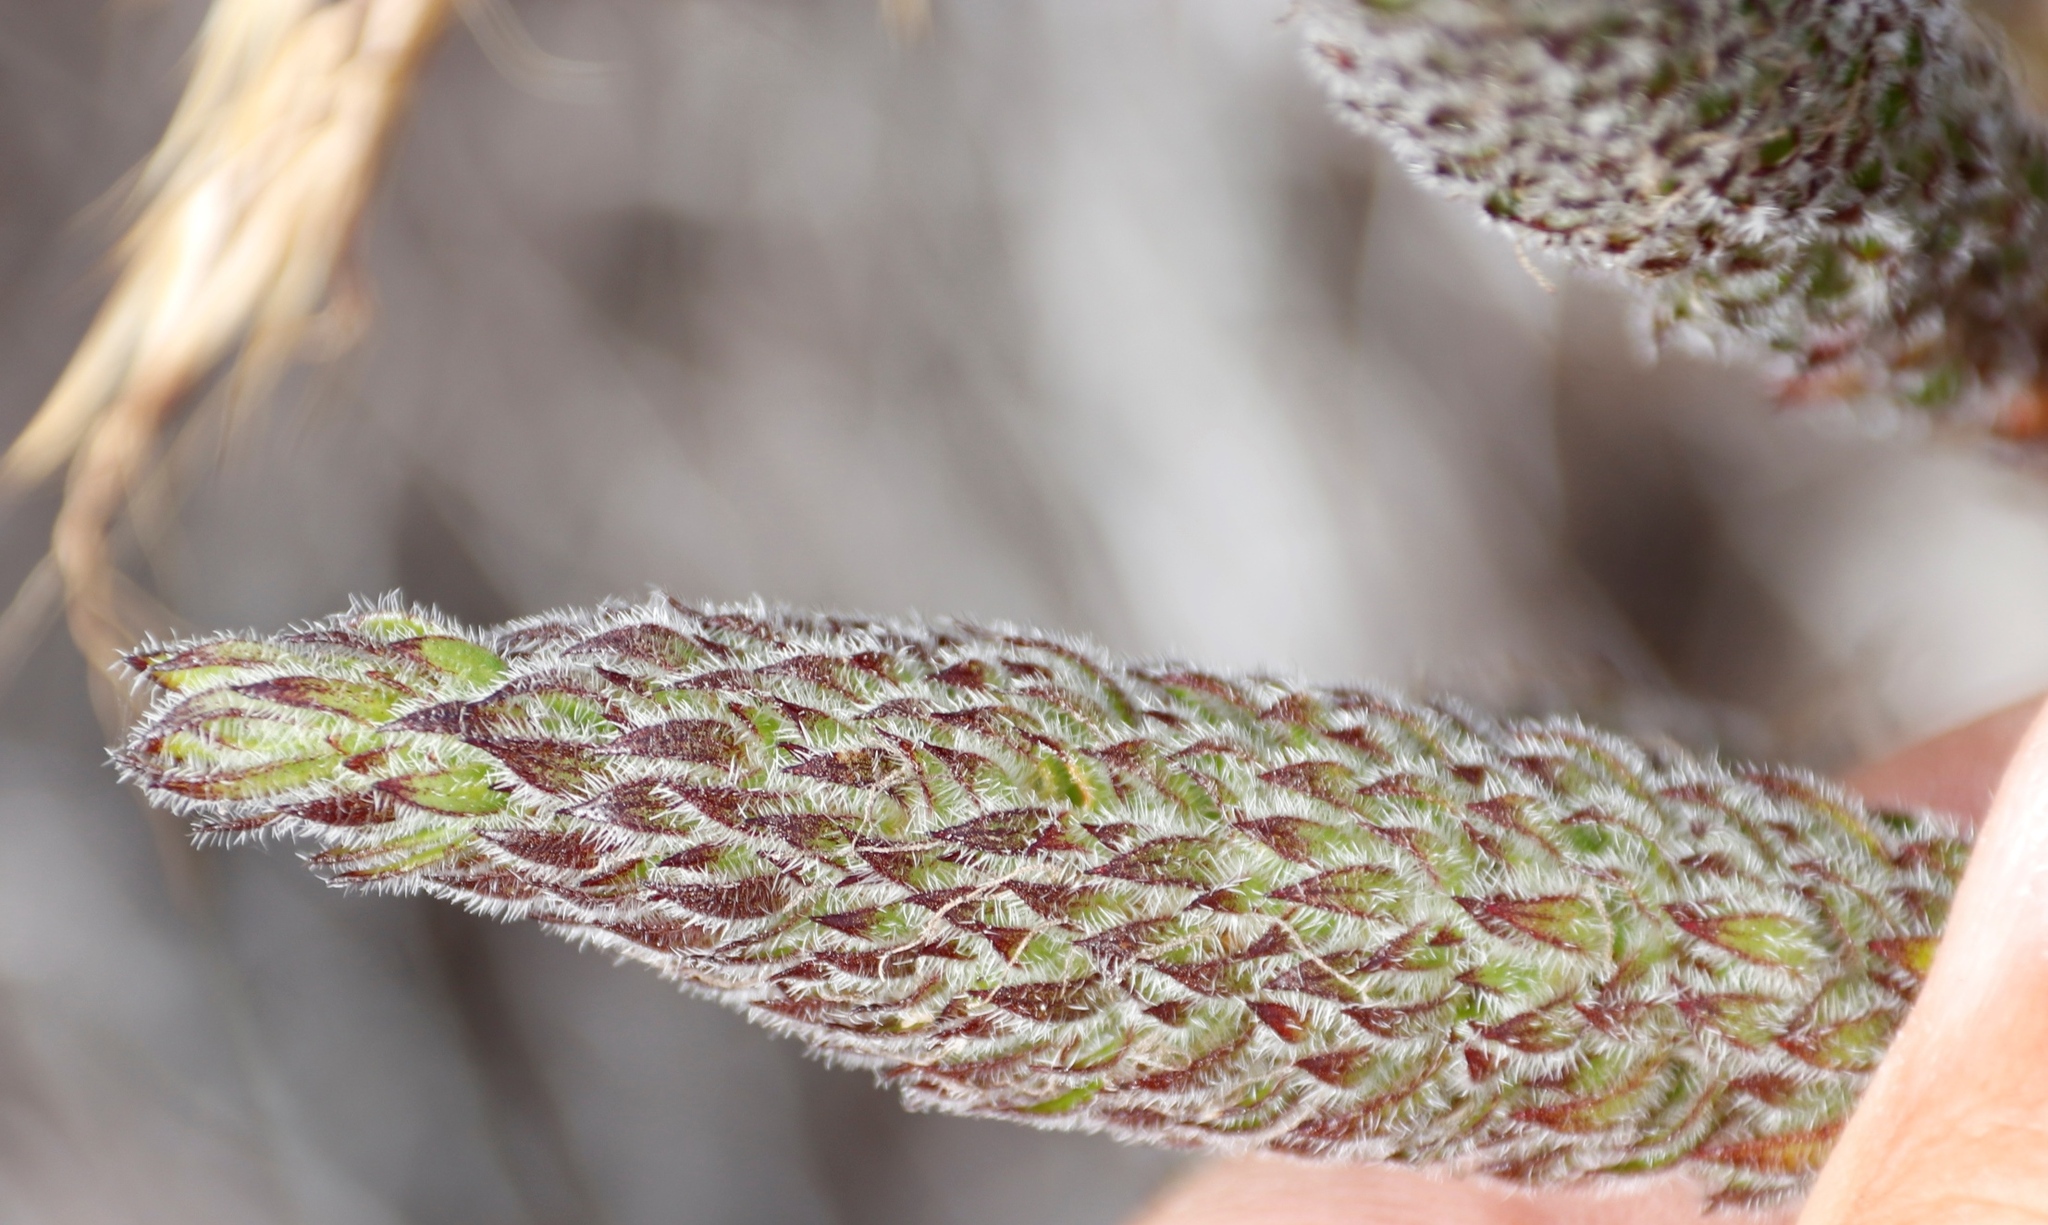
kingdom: Plantae
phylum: Tracheophyta
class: Magnoliopsida
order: Gentianales
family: Rubiaceae
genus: Anthospermum
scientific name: Anthospermum bergianum
